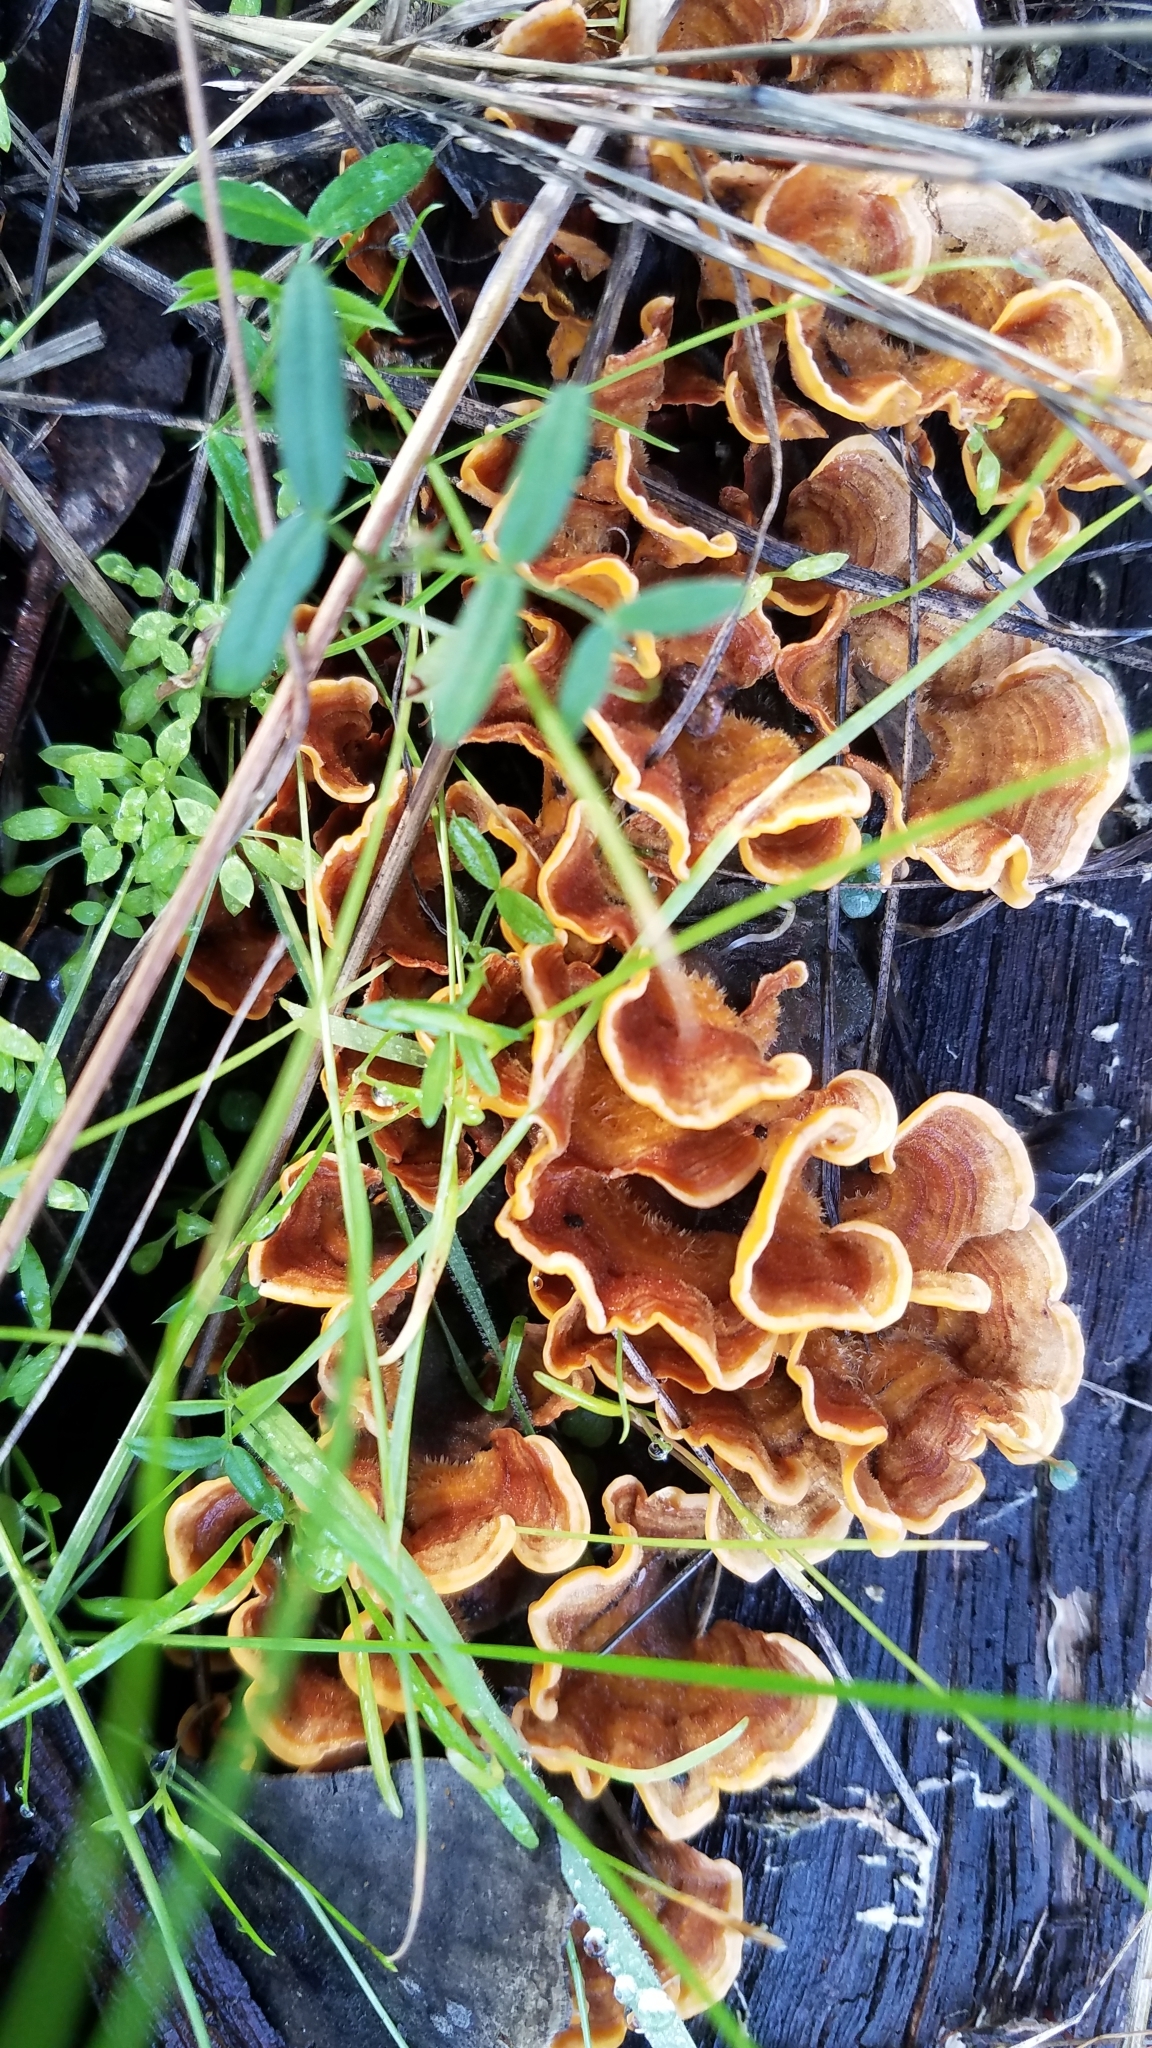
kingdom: Fungi
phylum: Basidiomycota
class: Agaricomycetes
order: Russulales
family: Stereaceae
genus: Stereum
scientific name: Stereum hirsutum
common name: Hairy curtain crust
